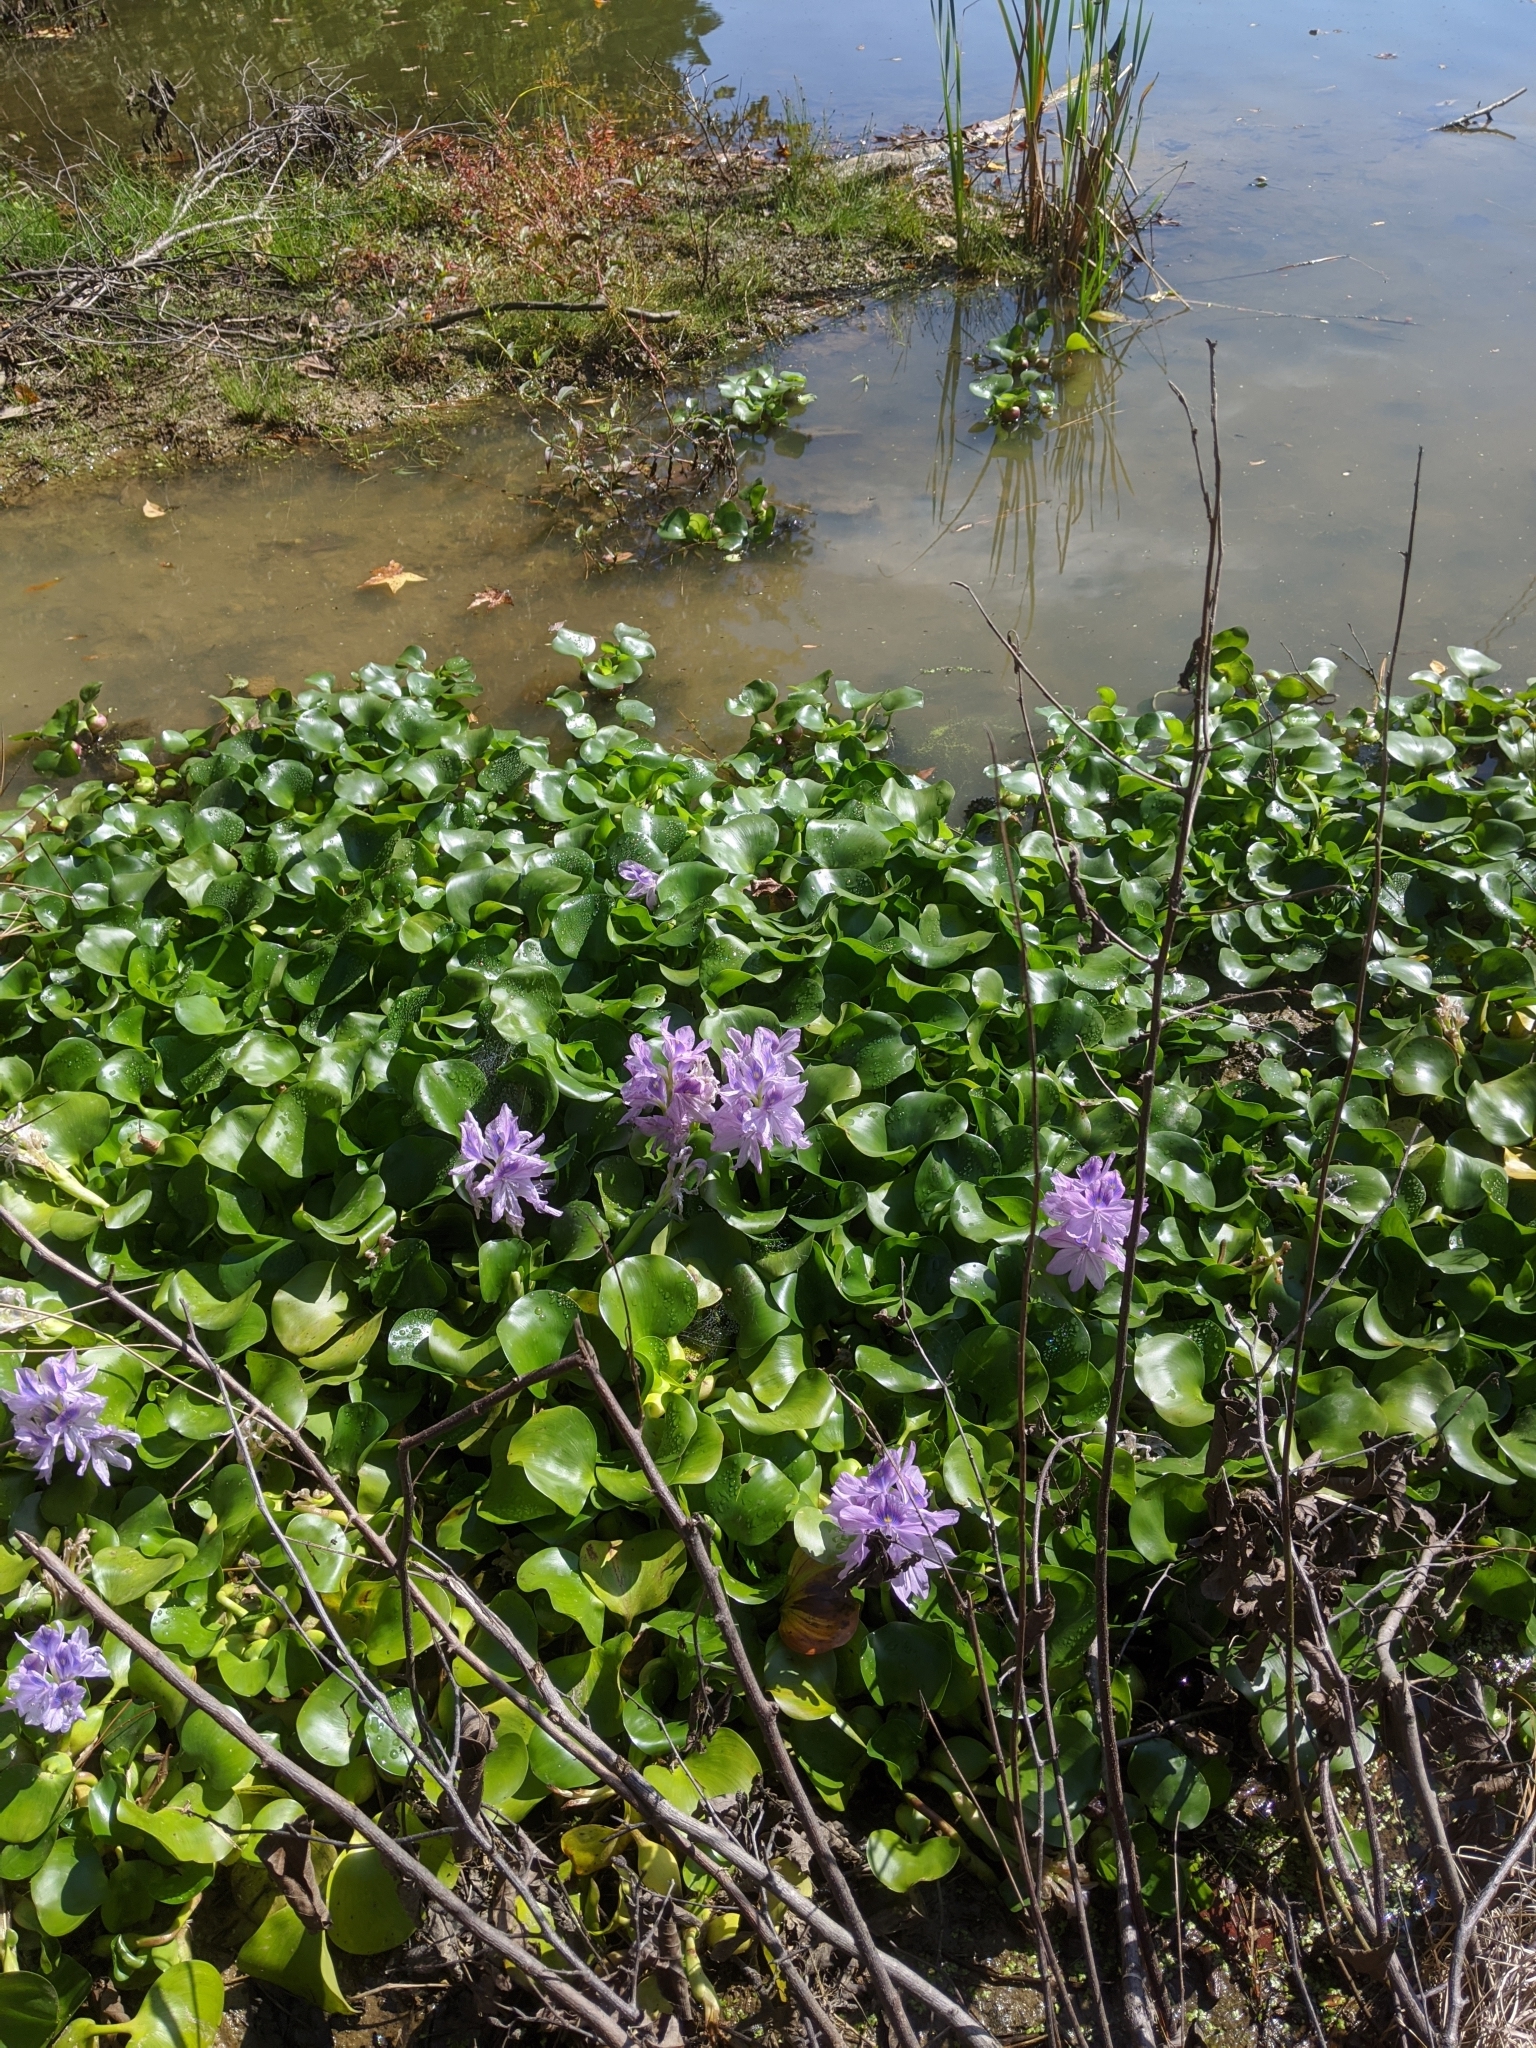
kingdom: Plantae
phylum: Tracheophyta
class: Liliopsida
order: Commelinales
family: Pontederiaceae
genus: Pontederia
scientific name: Pontederia crassipes
